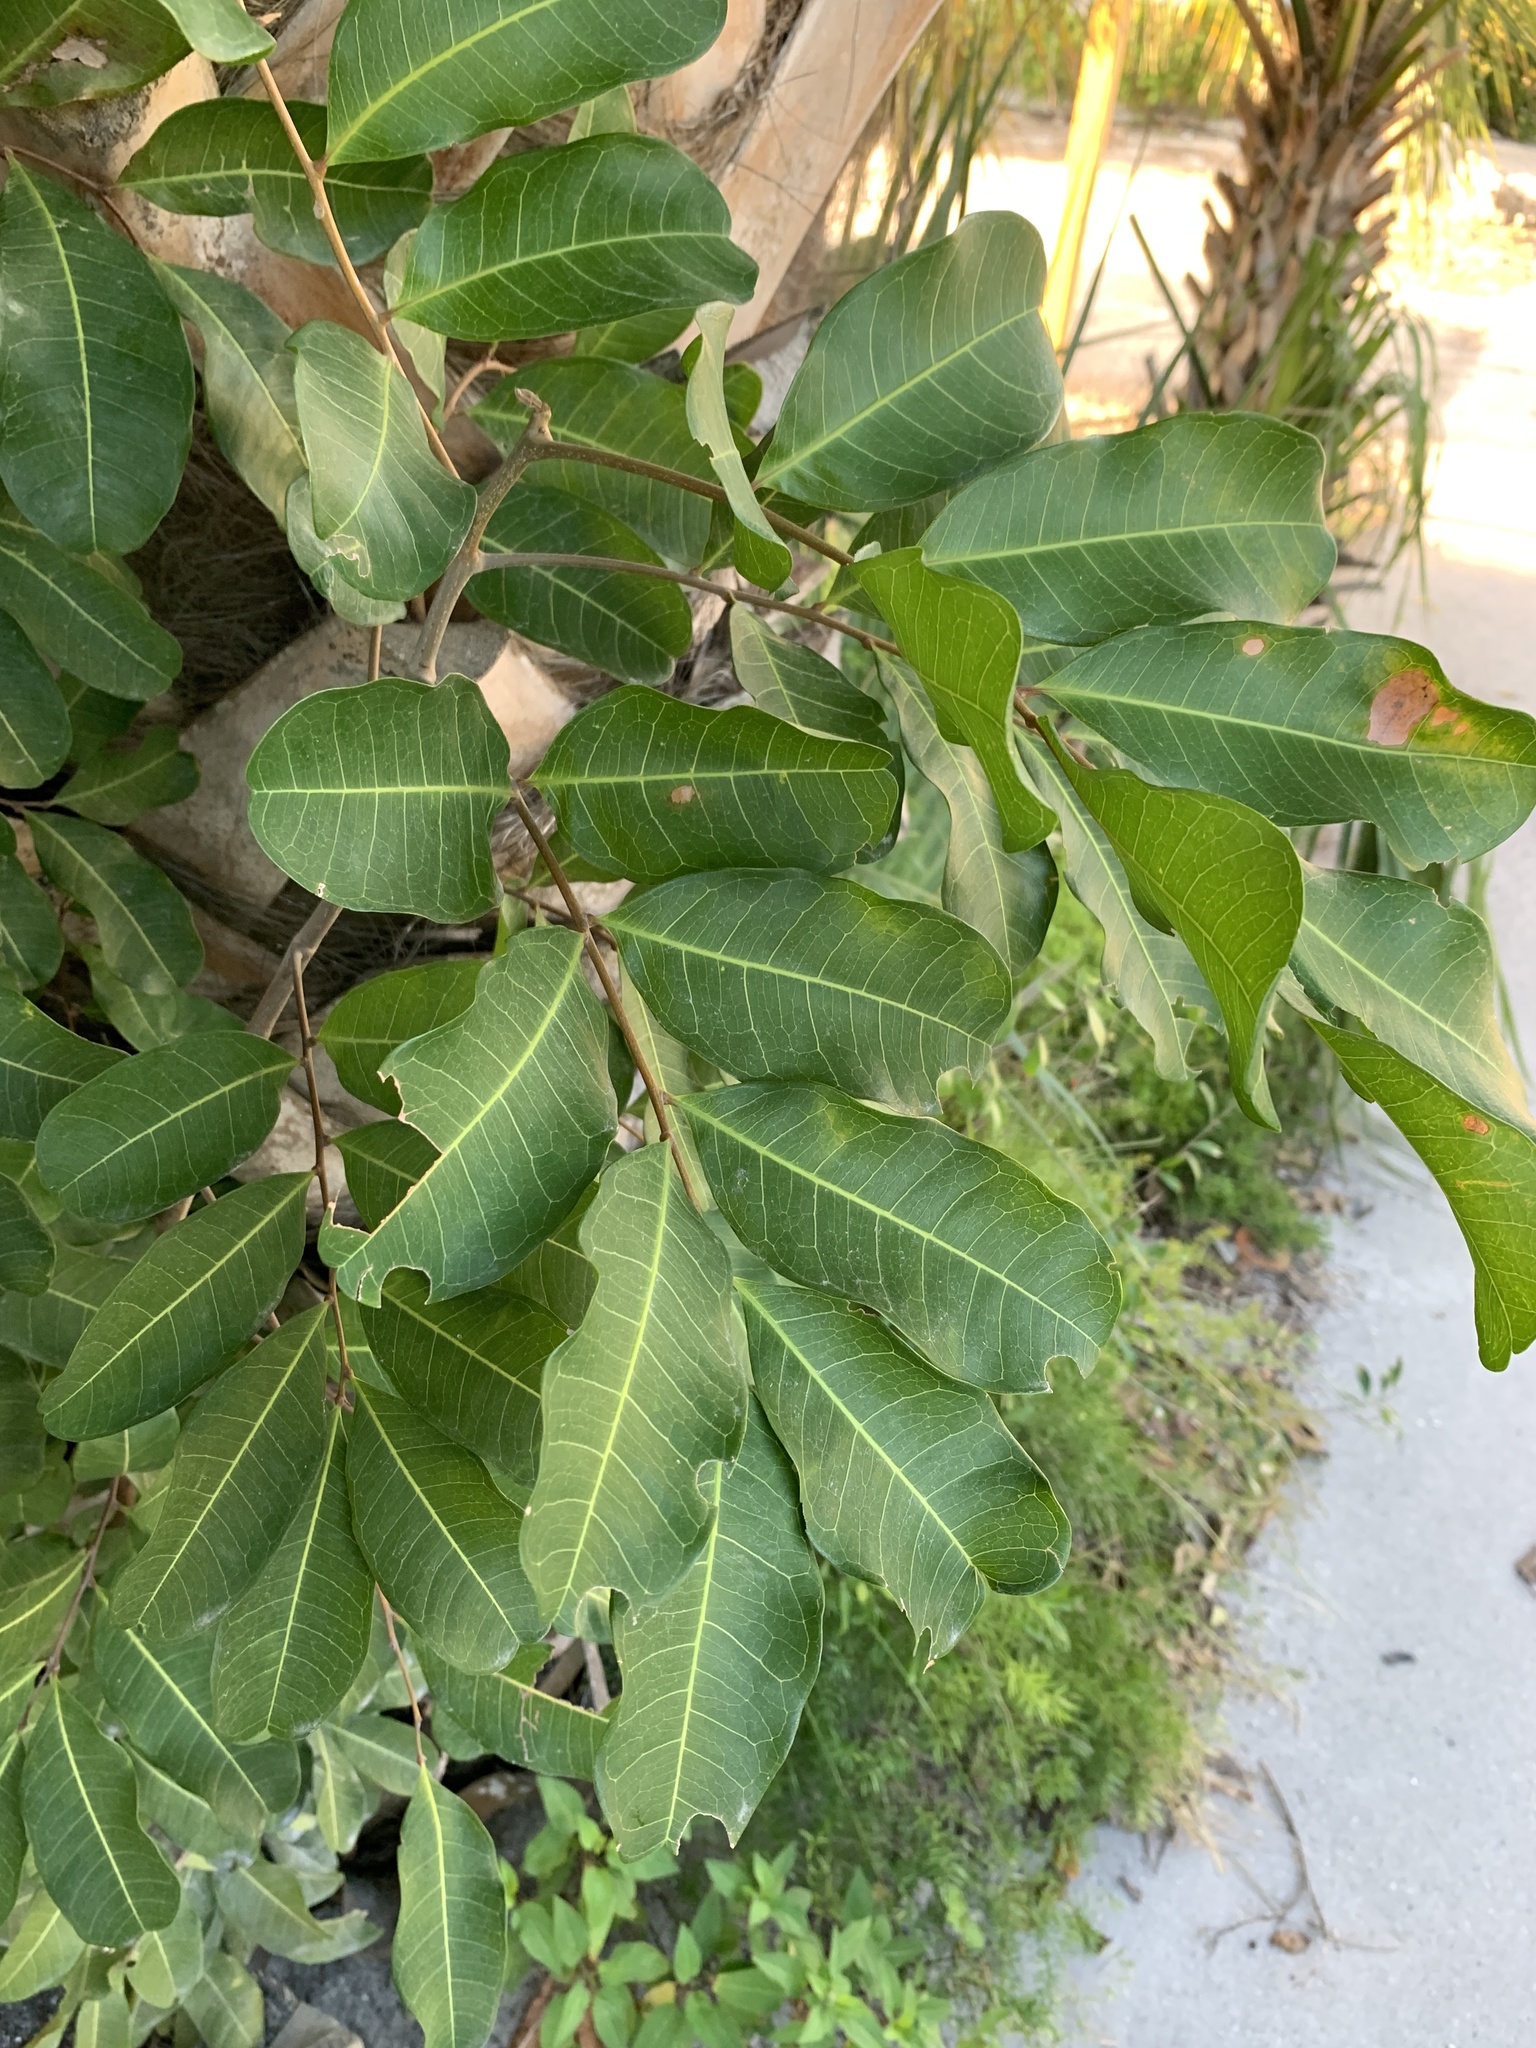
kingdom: Plantae
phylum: Tracheophyta
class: Magnoliopsida
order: Sapindales
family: Sapindaceae
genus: Cupaniopsis
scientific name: Cupaniopsis anacardioides
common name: Carrotwood
